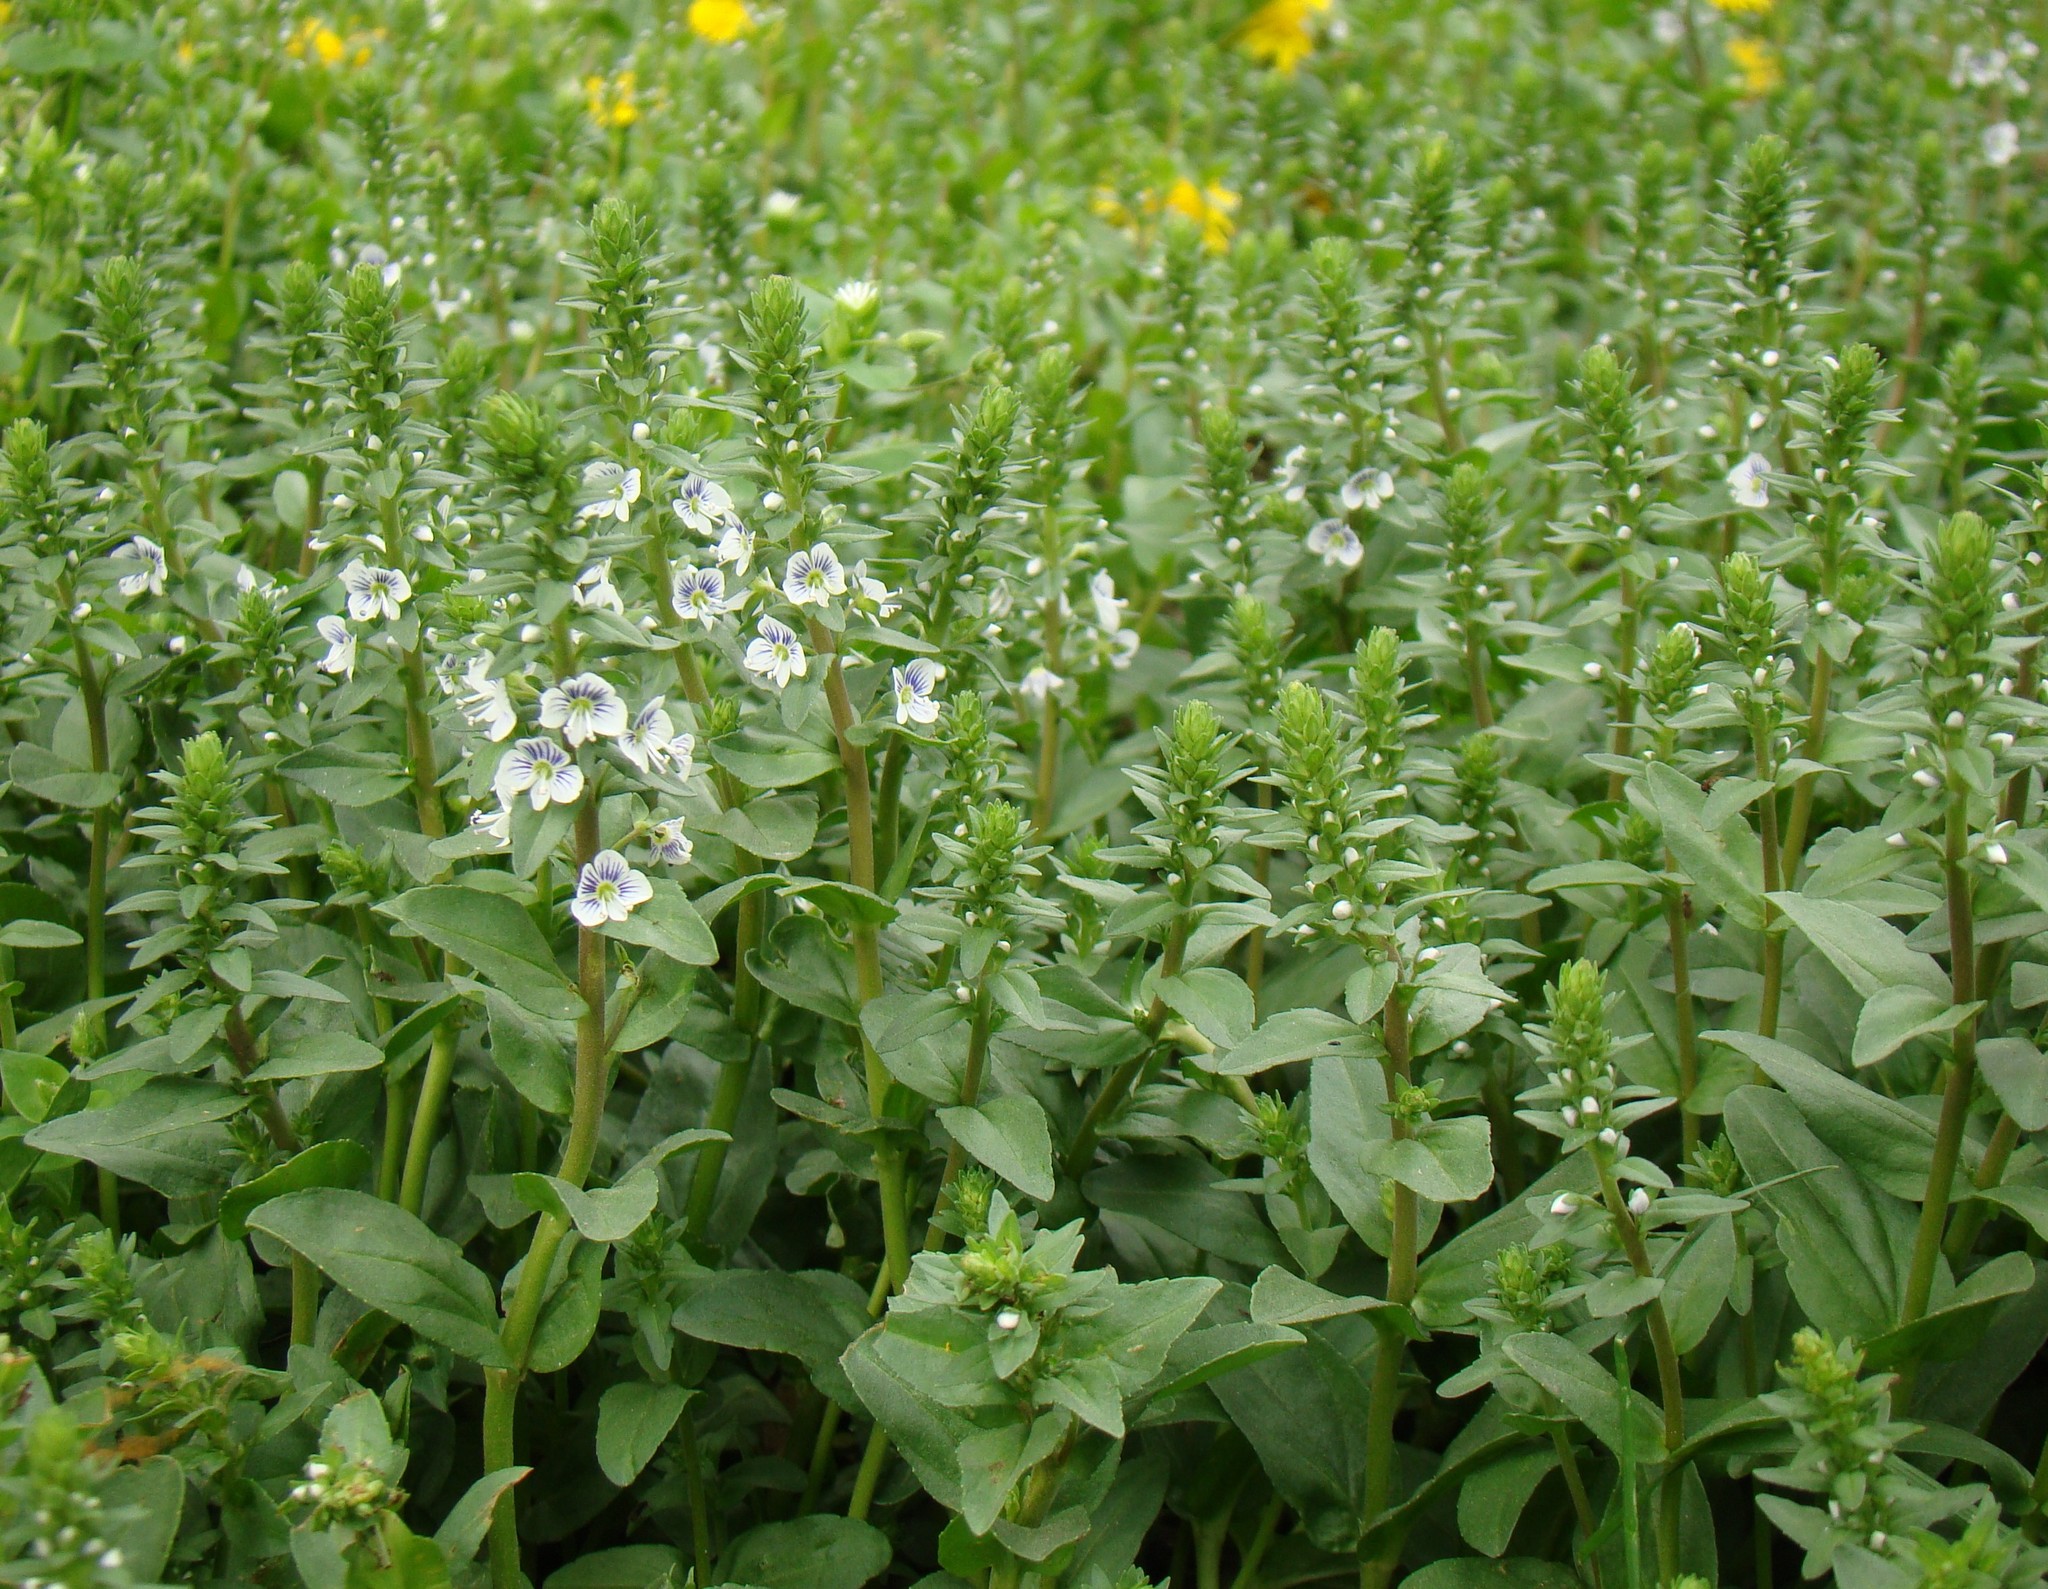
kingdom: Plantae
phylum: Tracheophyta
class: Magnoliopsida
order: Lamiales
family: Plantaginaceae
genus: Veronica
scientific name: Veronica serpyllifolia
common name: Thyme-leaved speedwell
